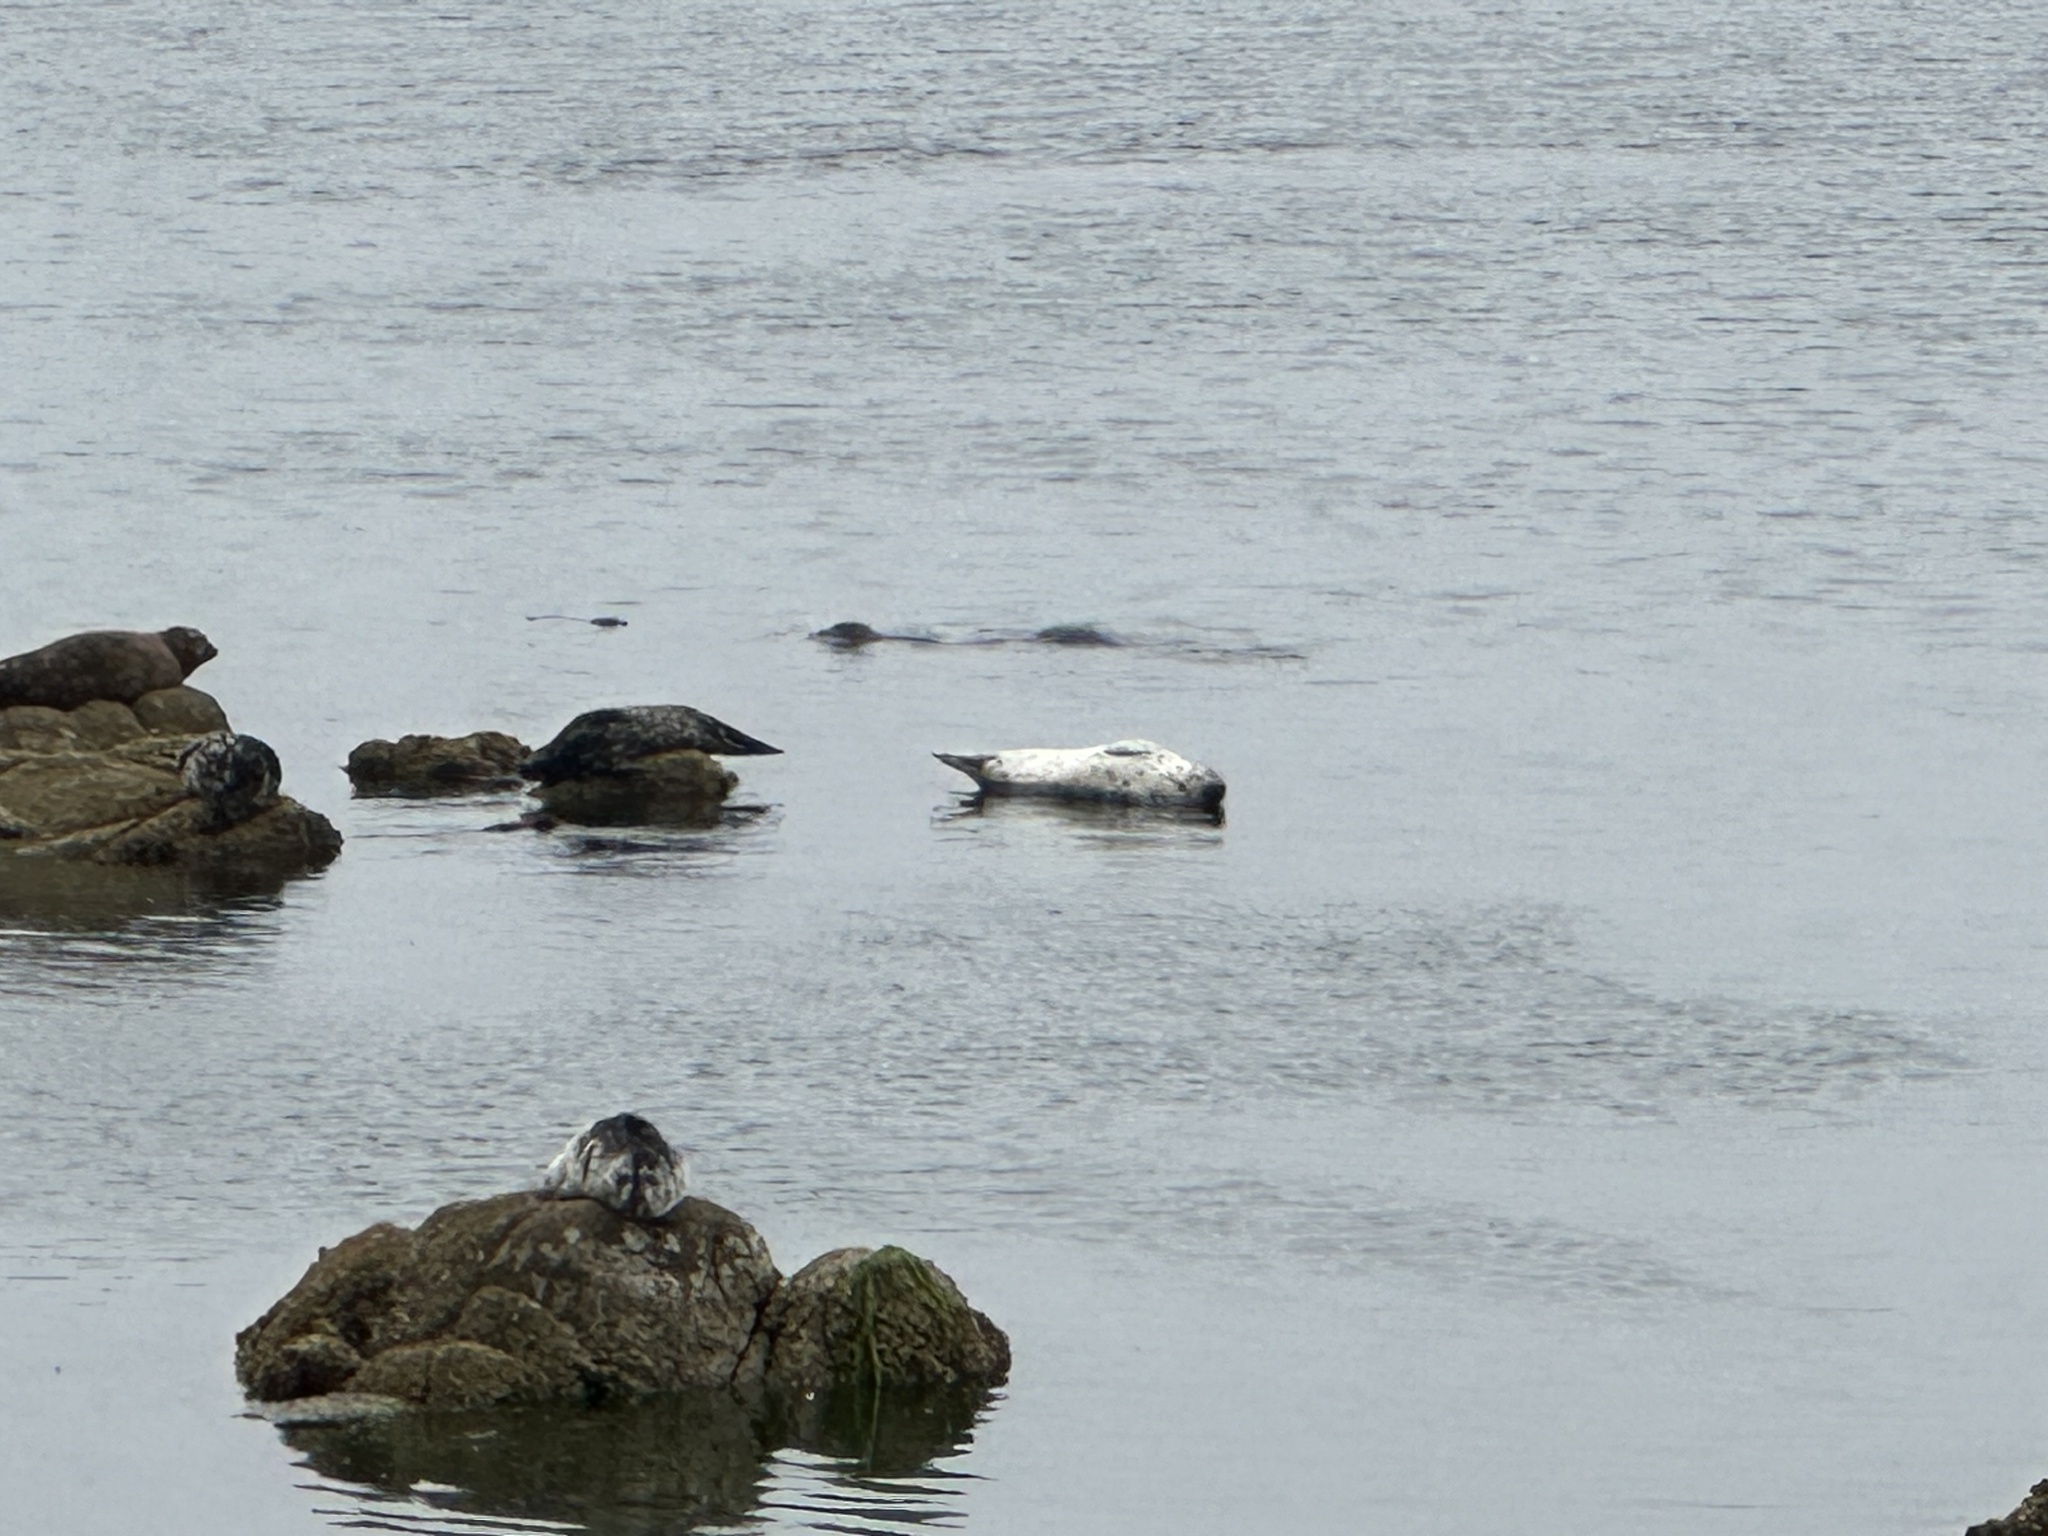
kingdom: Animalia
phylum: Chordata
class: Mammalia
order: Carnivora
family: Phocidae
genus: Phoca
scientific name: Phoca vitulina
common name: Harbor seal
